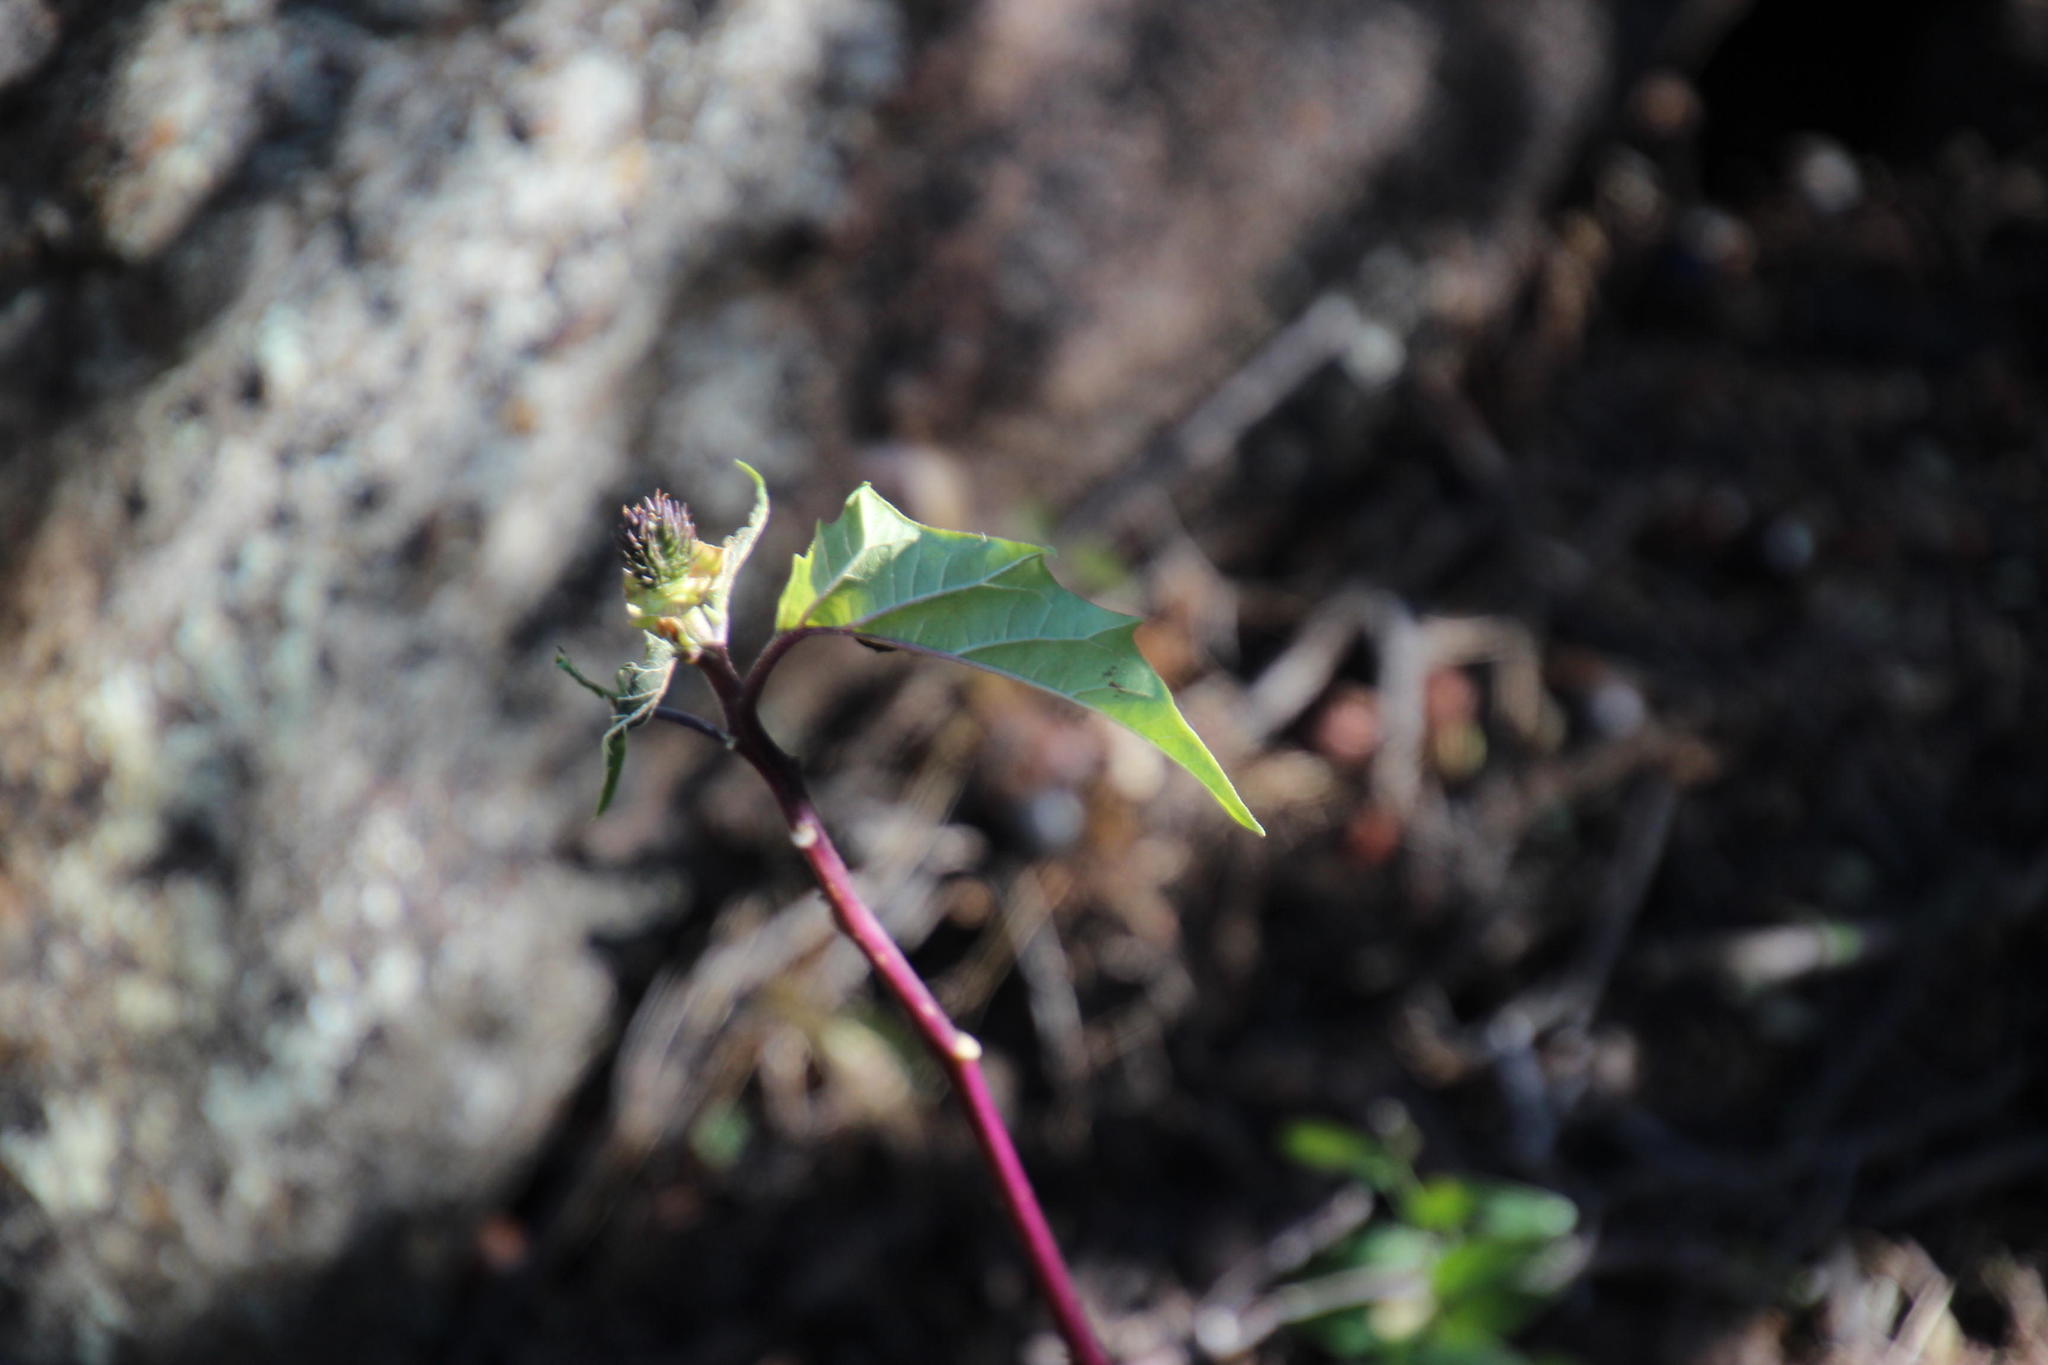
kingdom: Plantae
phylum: Tracheophyta
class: Magnoliopsida
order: Solanales
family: Solanaceae
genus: Datura
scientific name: Datura stramonium
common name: Thorn-apple
